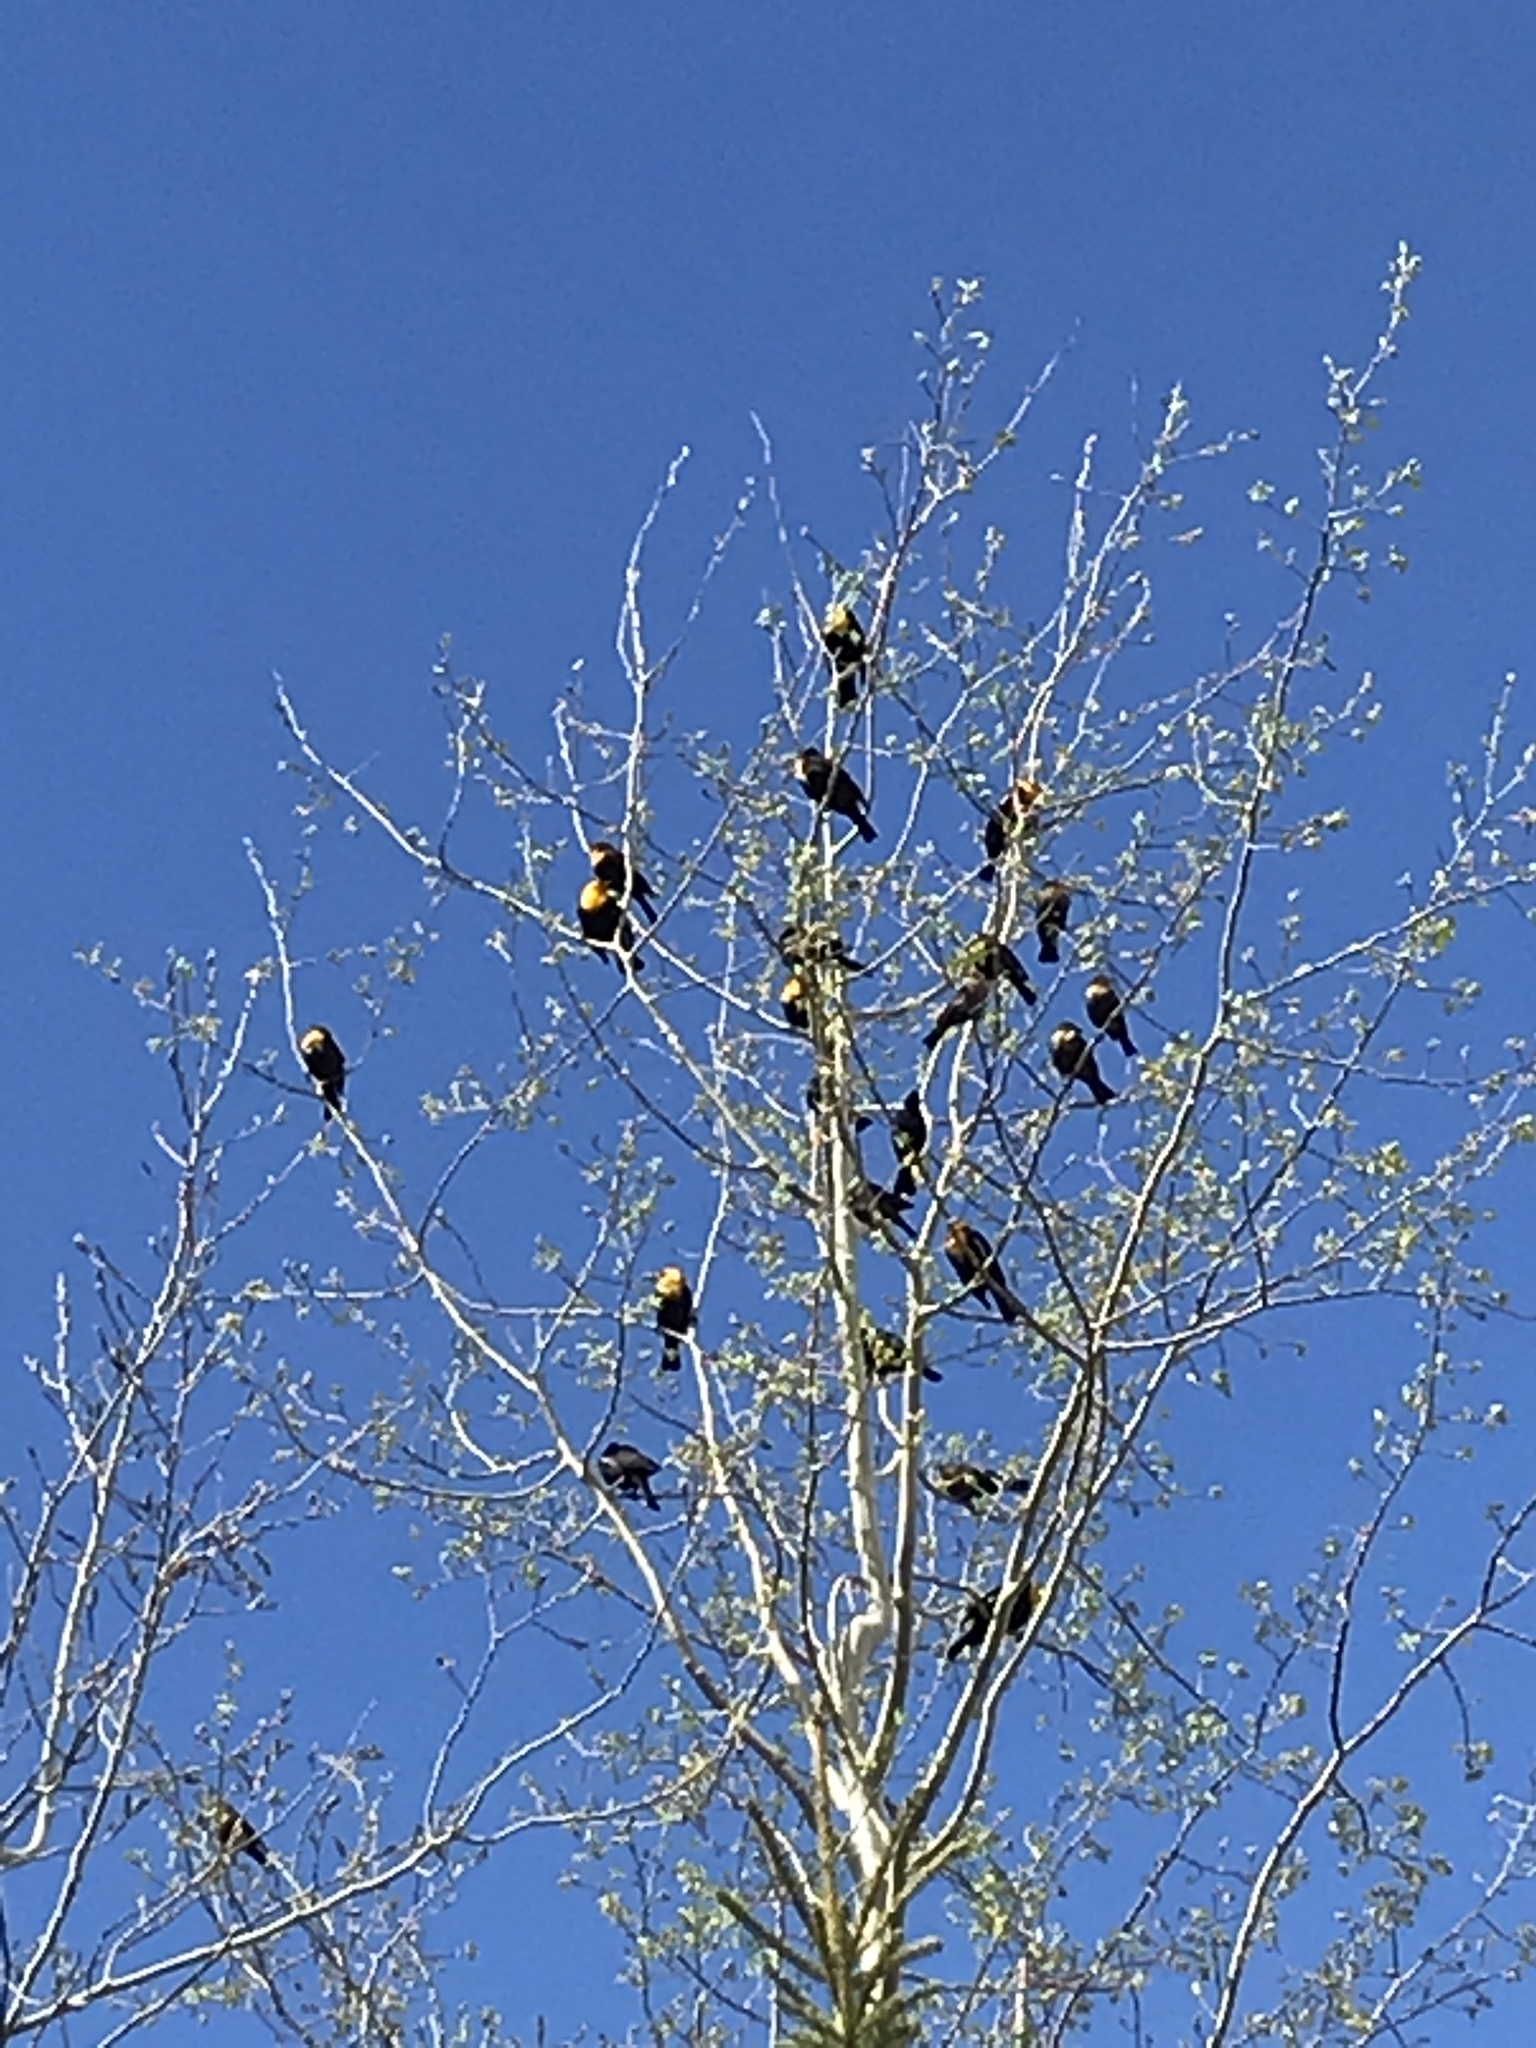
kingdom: Animalia
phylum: Chordata
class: Aves
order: Passeriformes
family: Icteridae
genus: Xanthocephalus
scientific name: Xanthocephalus xanthocephalus
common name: Yellow-headed blackbird
